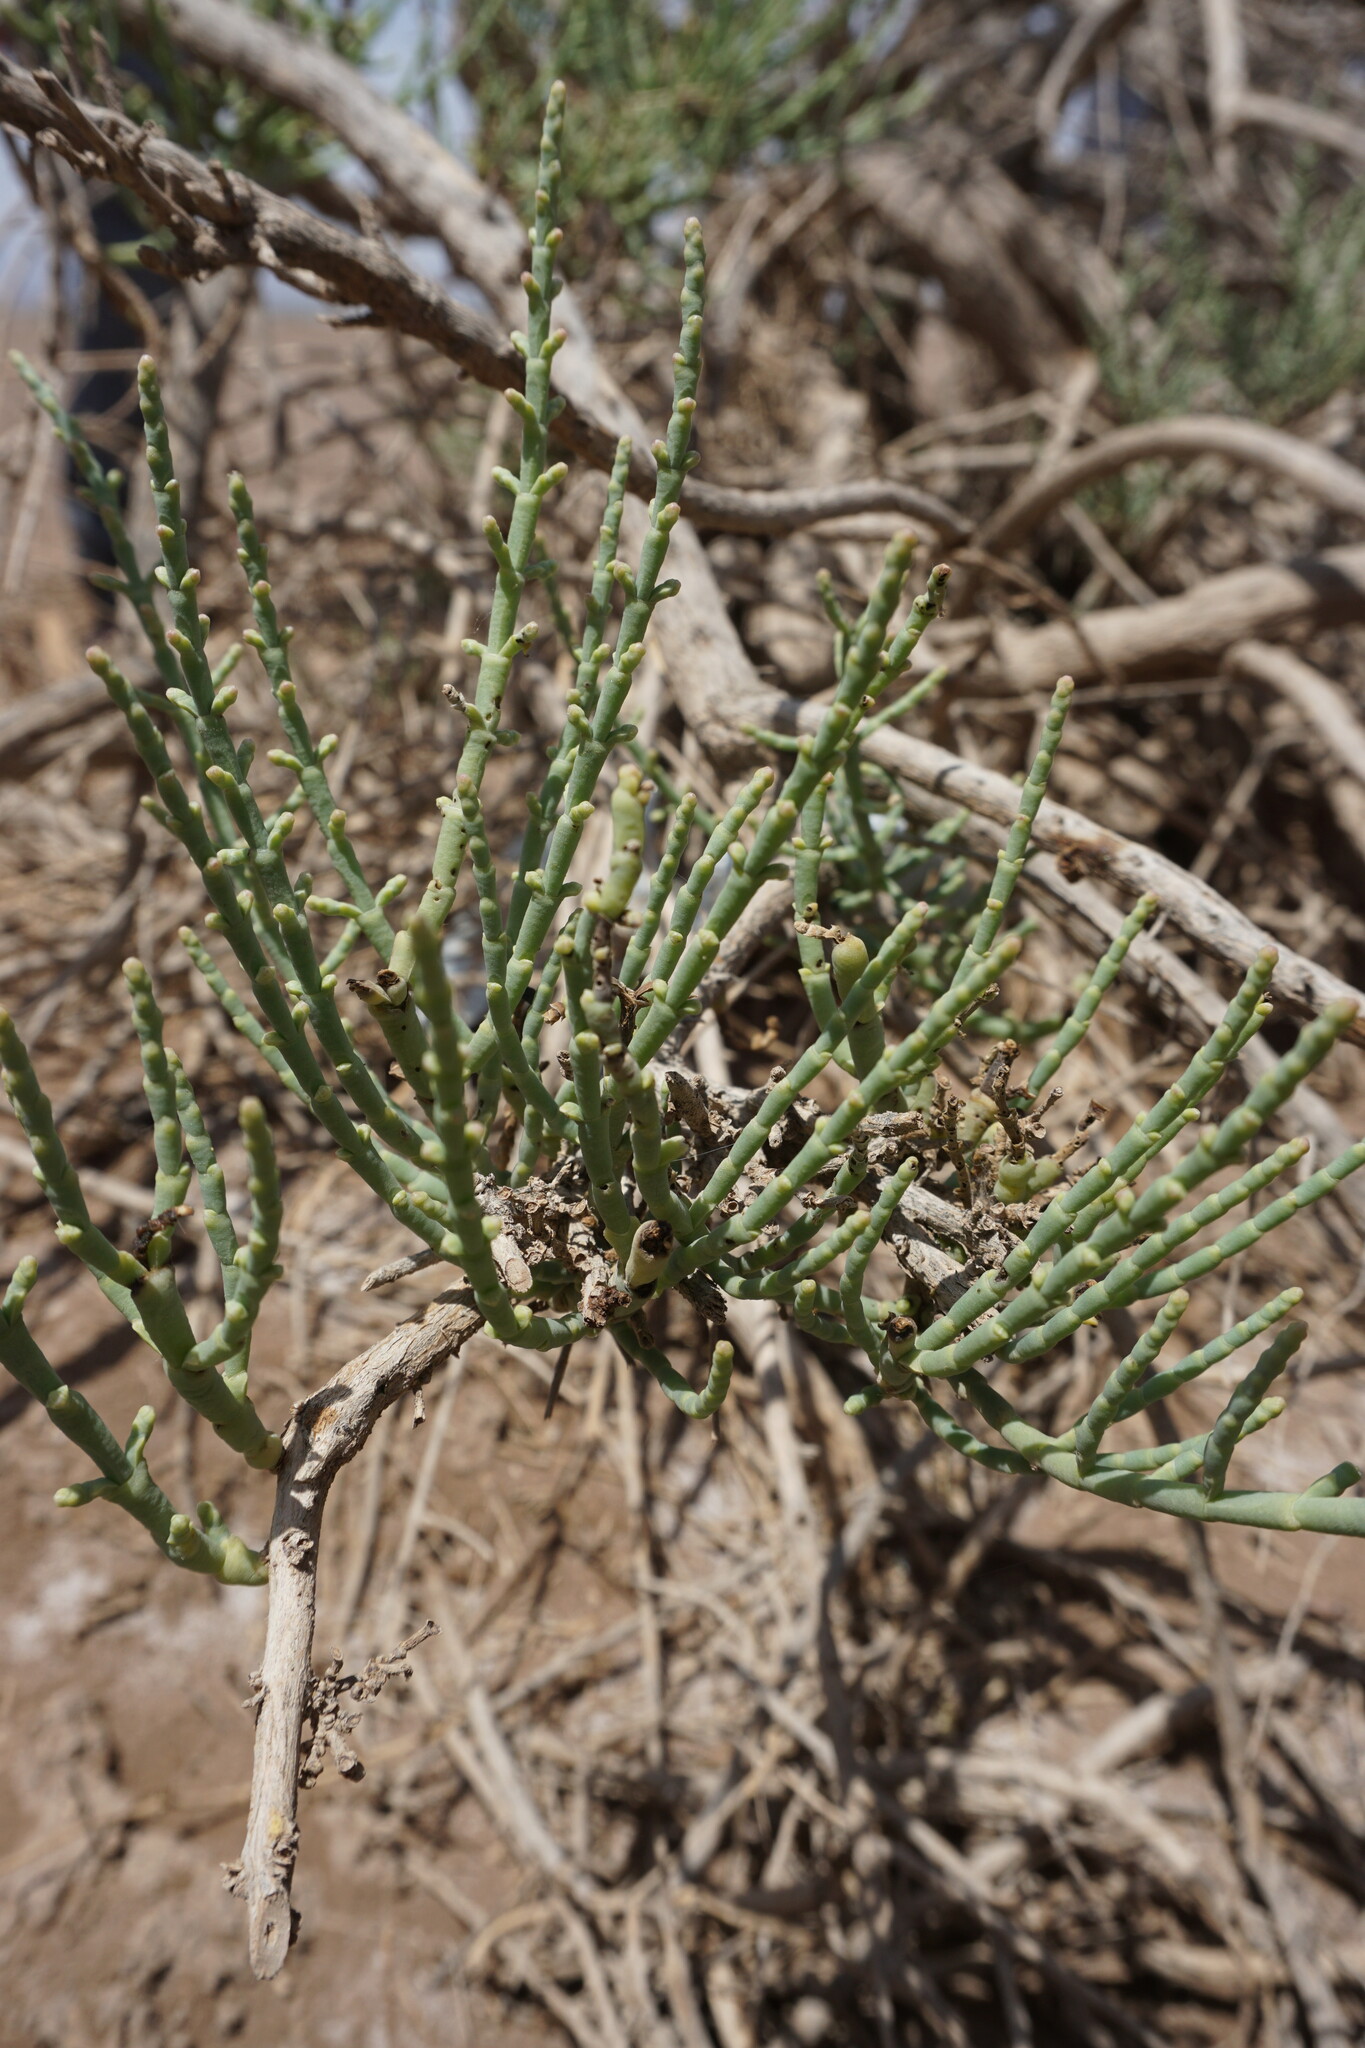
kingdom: Plantae
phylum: Tracheophyta
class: Magnoliopsida
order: Caryophyllales
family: Amaranthaceae
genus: Haloxylon
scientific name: Haloxylon salicornicum
